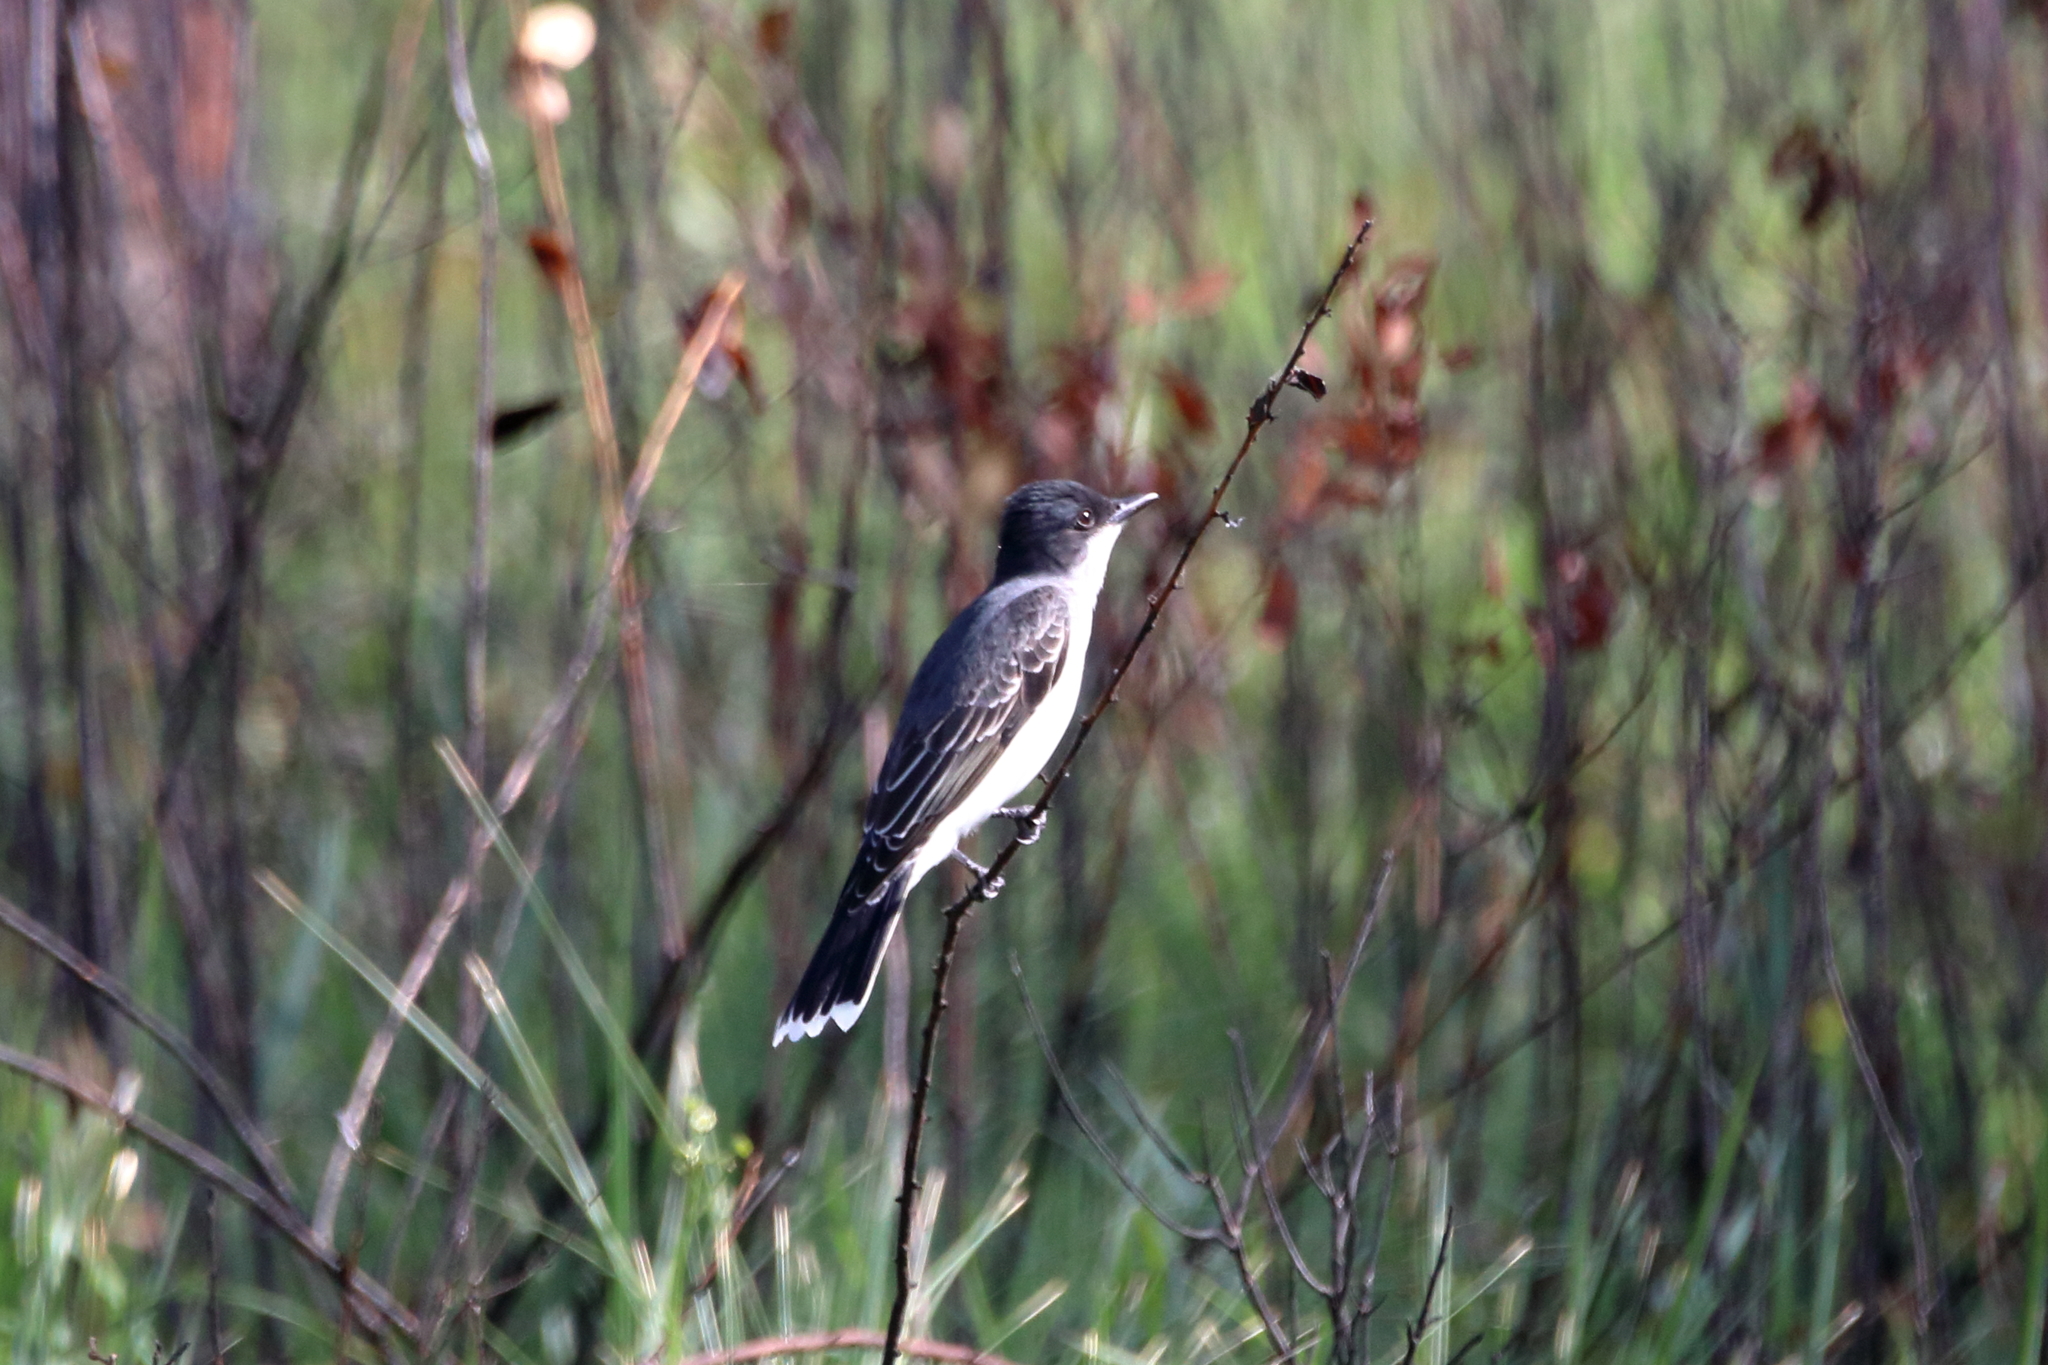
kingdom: Animalia
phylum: Chordata
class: Aves
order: Passeriformes
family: Tyrannidae
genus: Tyrannus
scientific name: Tyrannus tyrannus
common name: Eastern kingbird
